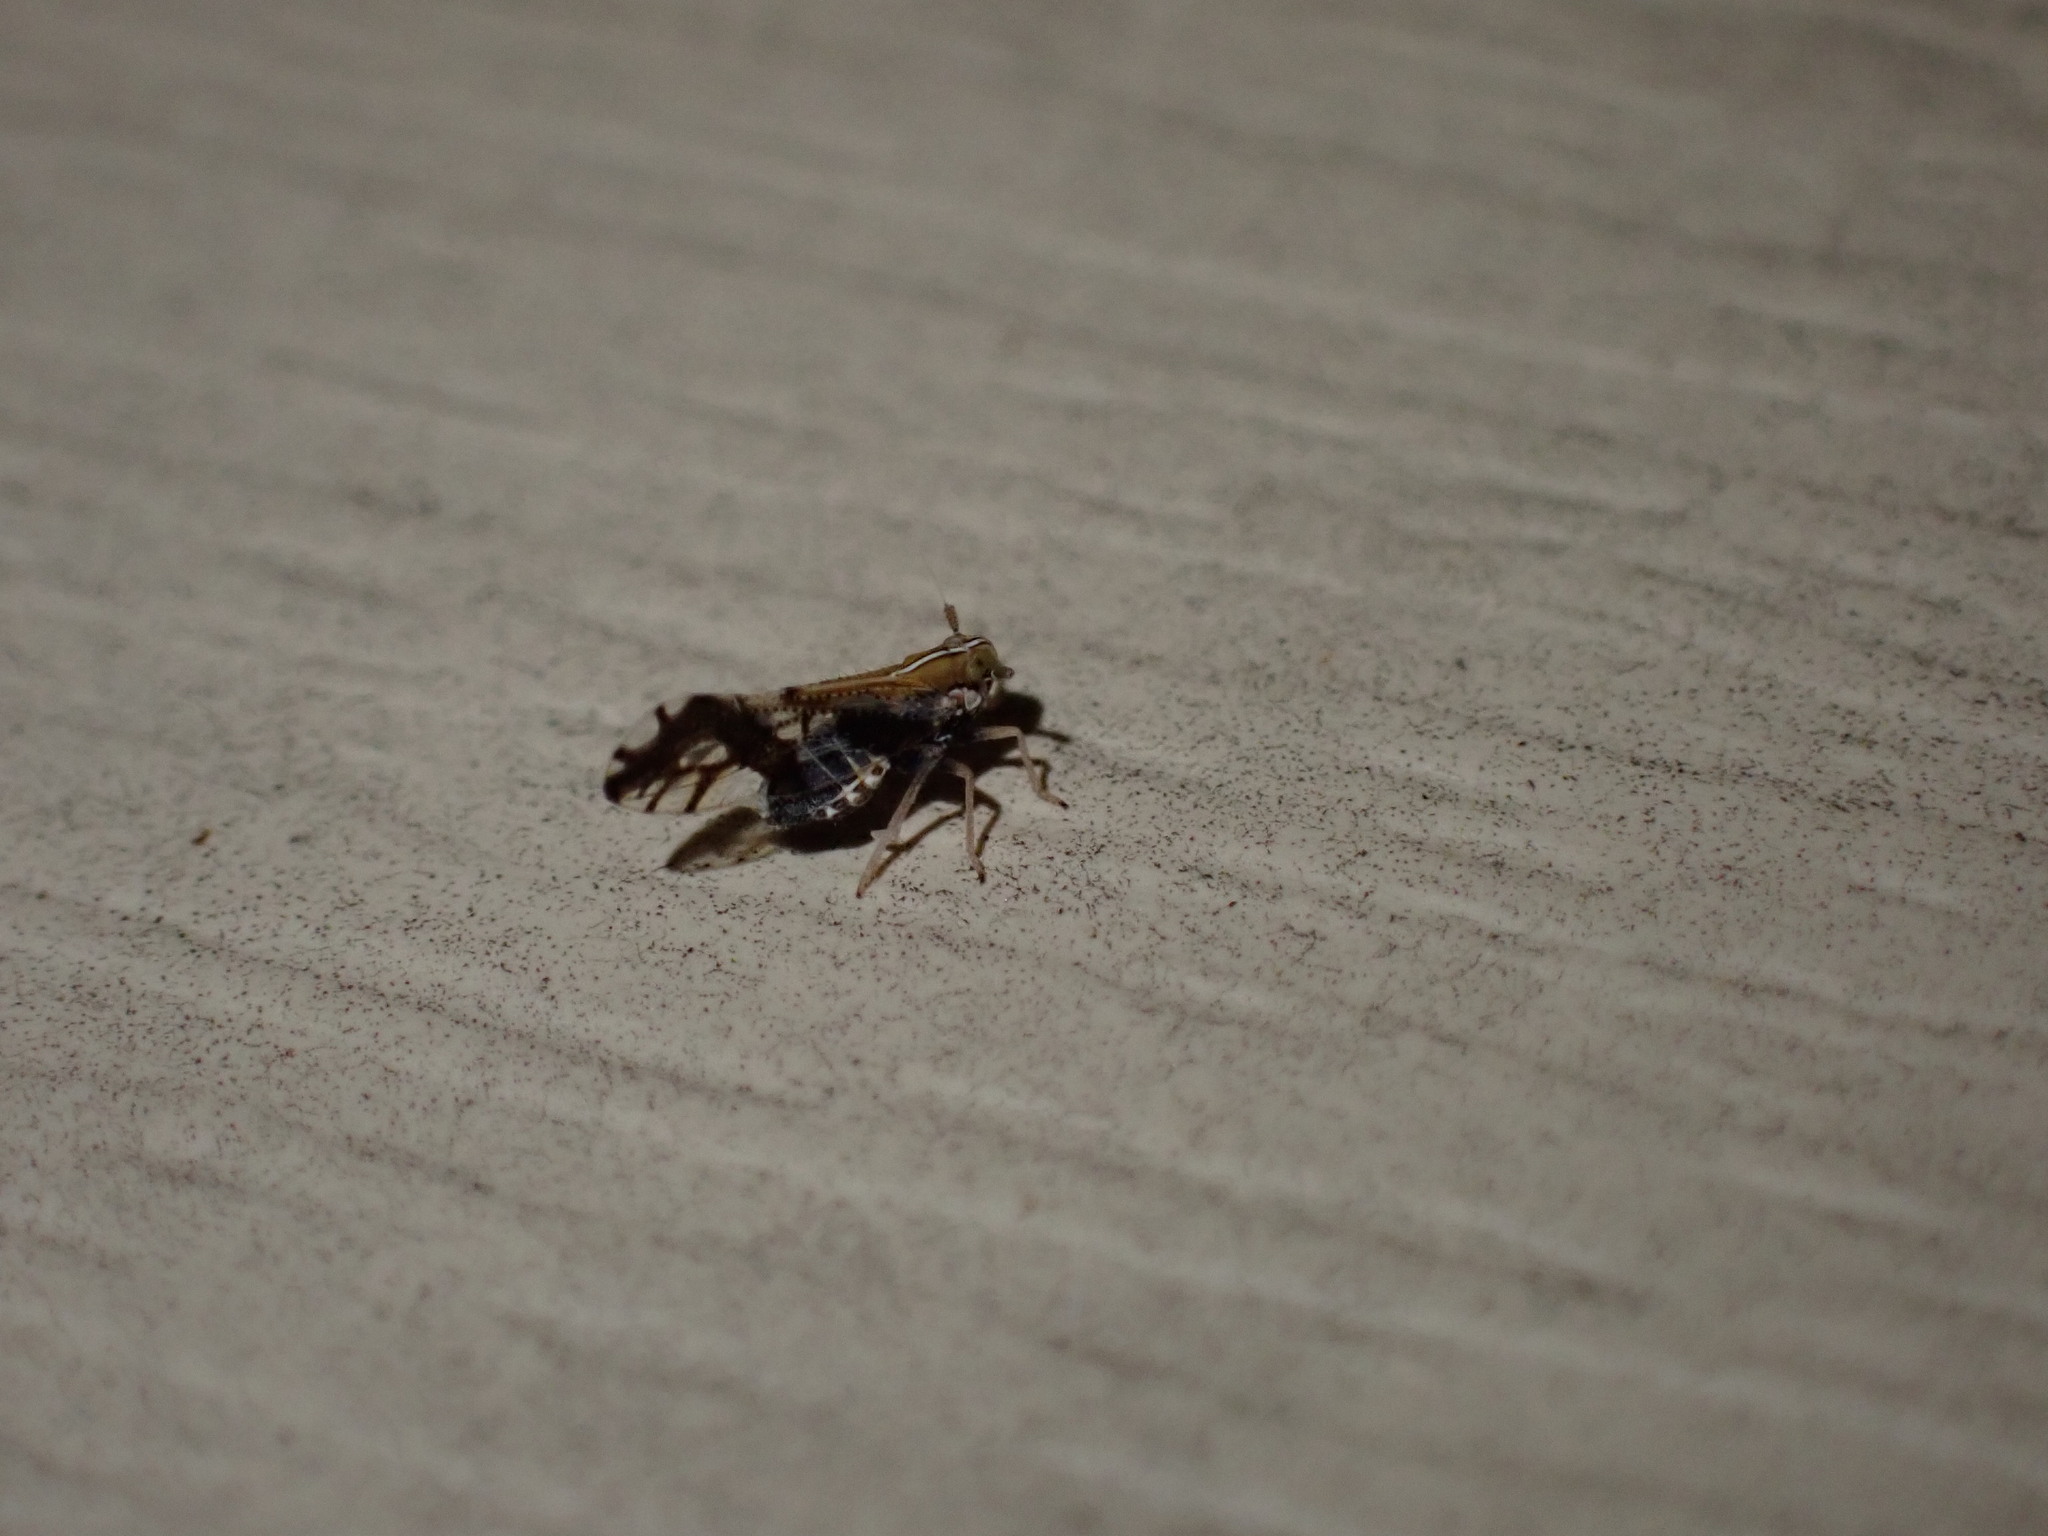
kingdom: Animalia
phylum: Arthropoda
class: Insecta
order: Hemiptera
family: Delphacidae
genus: Liburniella
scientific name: Liburniella ornata
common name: Ornate planthopper
